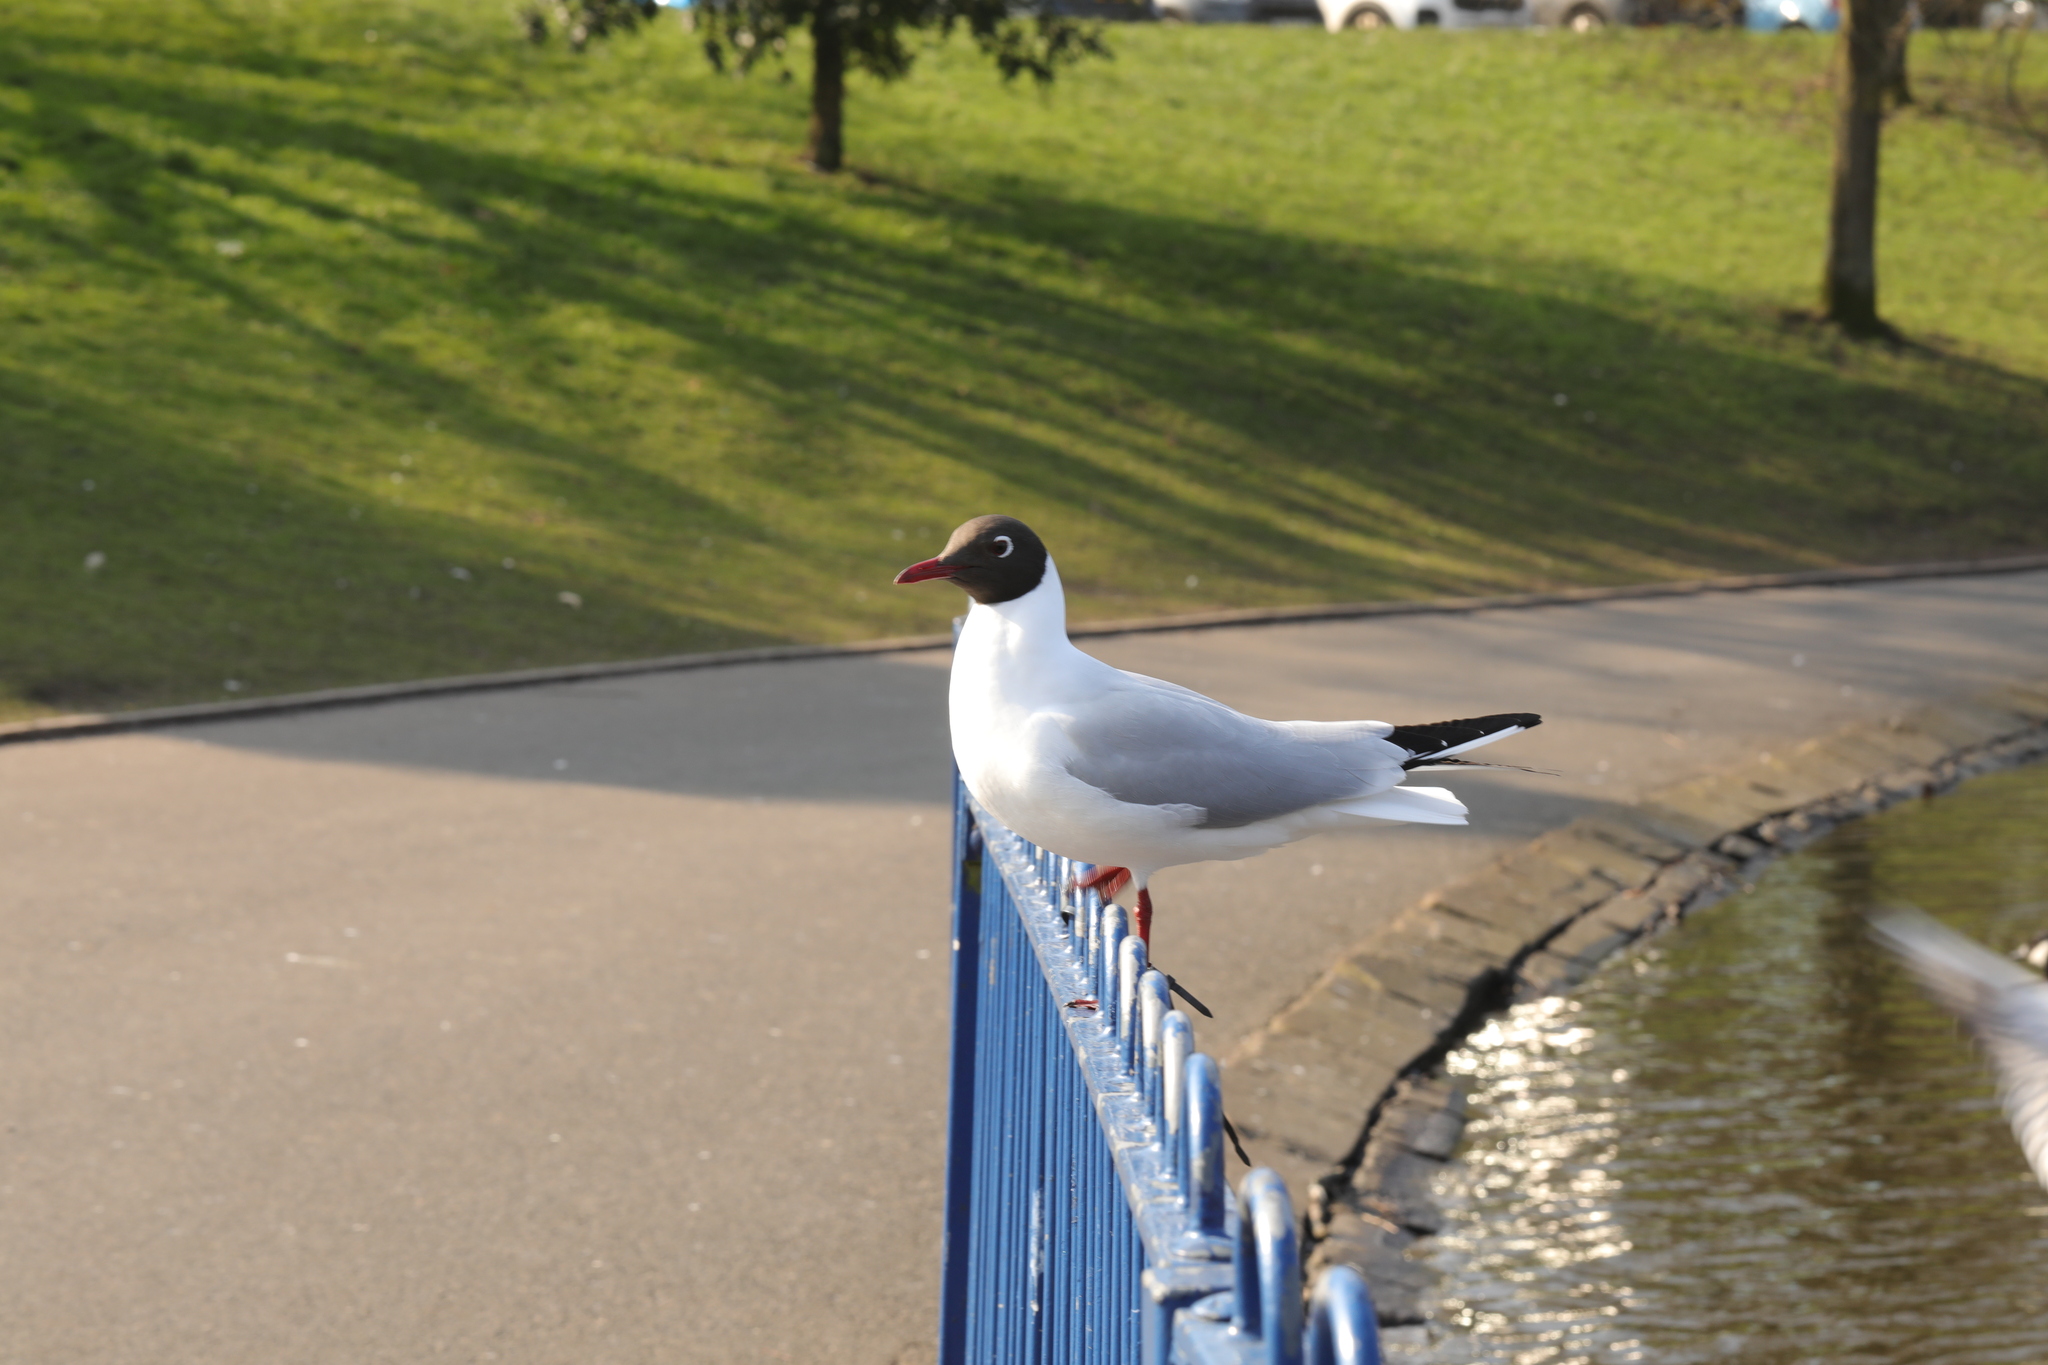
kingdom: Animalia
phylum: Chordata
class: Aves
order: Charadriiformes
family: Laridae
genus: Chroicocephalus
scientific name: Chroicocephalus ridibundus
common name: Black-headed gull
